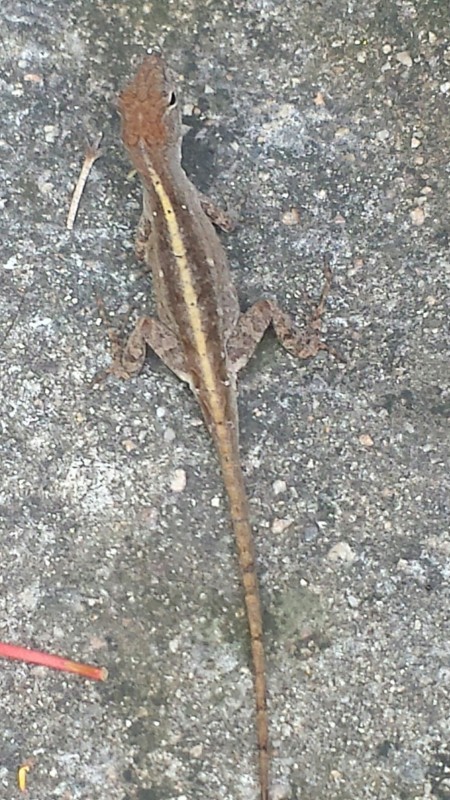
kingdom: Animalia
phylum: Chordata
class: Squamata
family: Dactyloidae
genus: Anolis
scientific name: Anolis sagrei
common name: Brown anole
